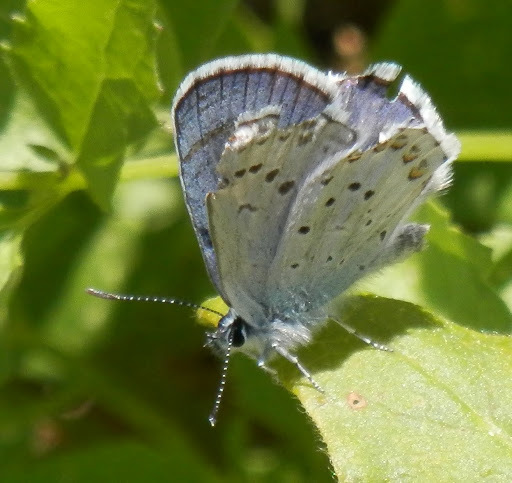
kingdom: Animalia
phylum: Arthropoda
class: Insecta
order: Lepidoptera
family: Lycaenidae
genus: Lycaeides
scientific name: Lycaeides anna
